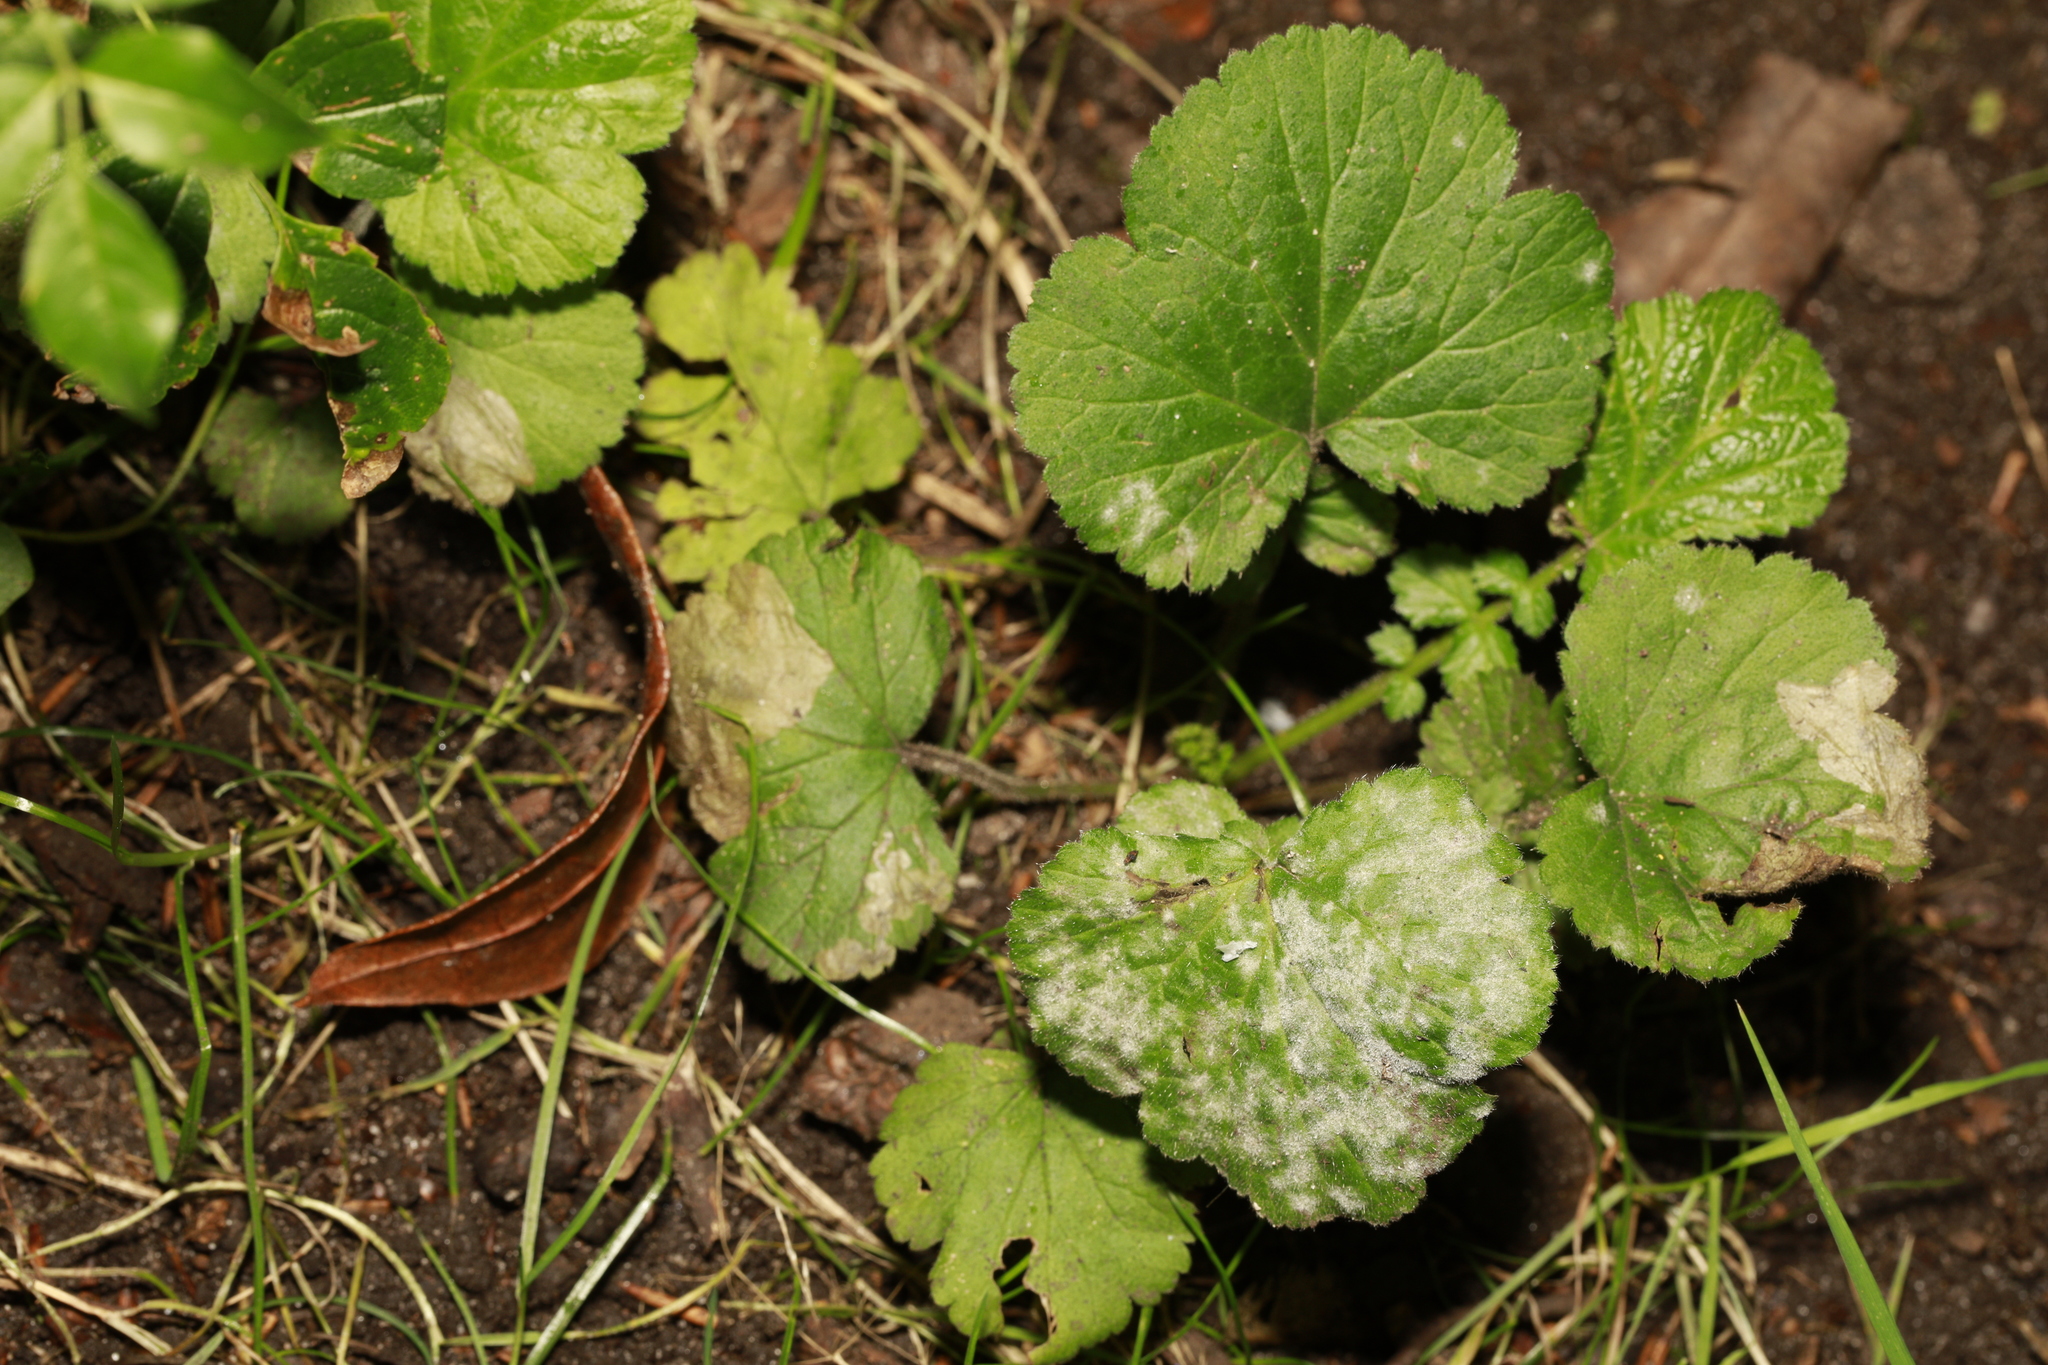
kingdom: Plantae
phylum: Tracheophyta
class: Magnoliopsida
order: Rosales
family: Rosaceae
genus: Geum
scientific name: Geum urbanum
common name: Wood avens
